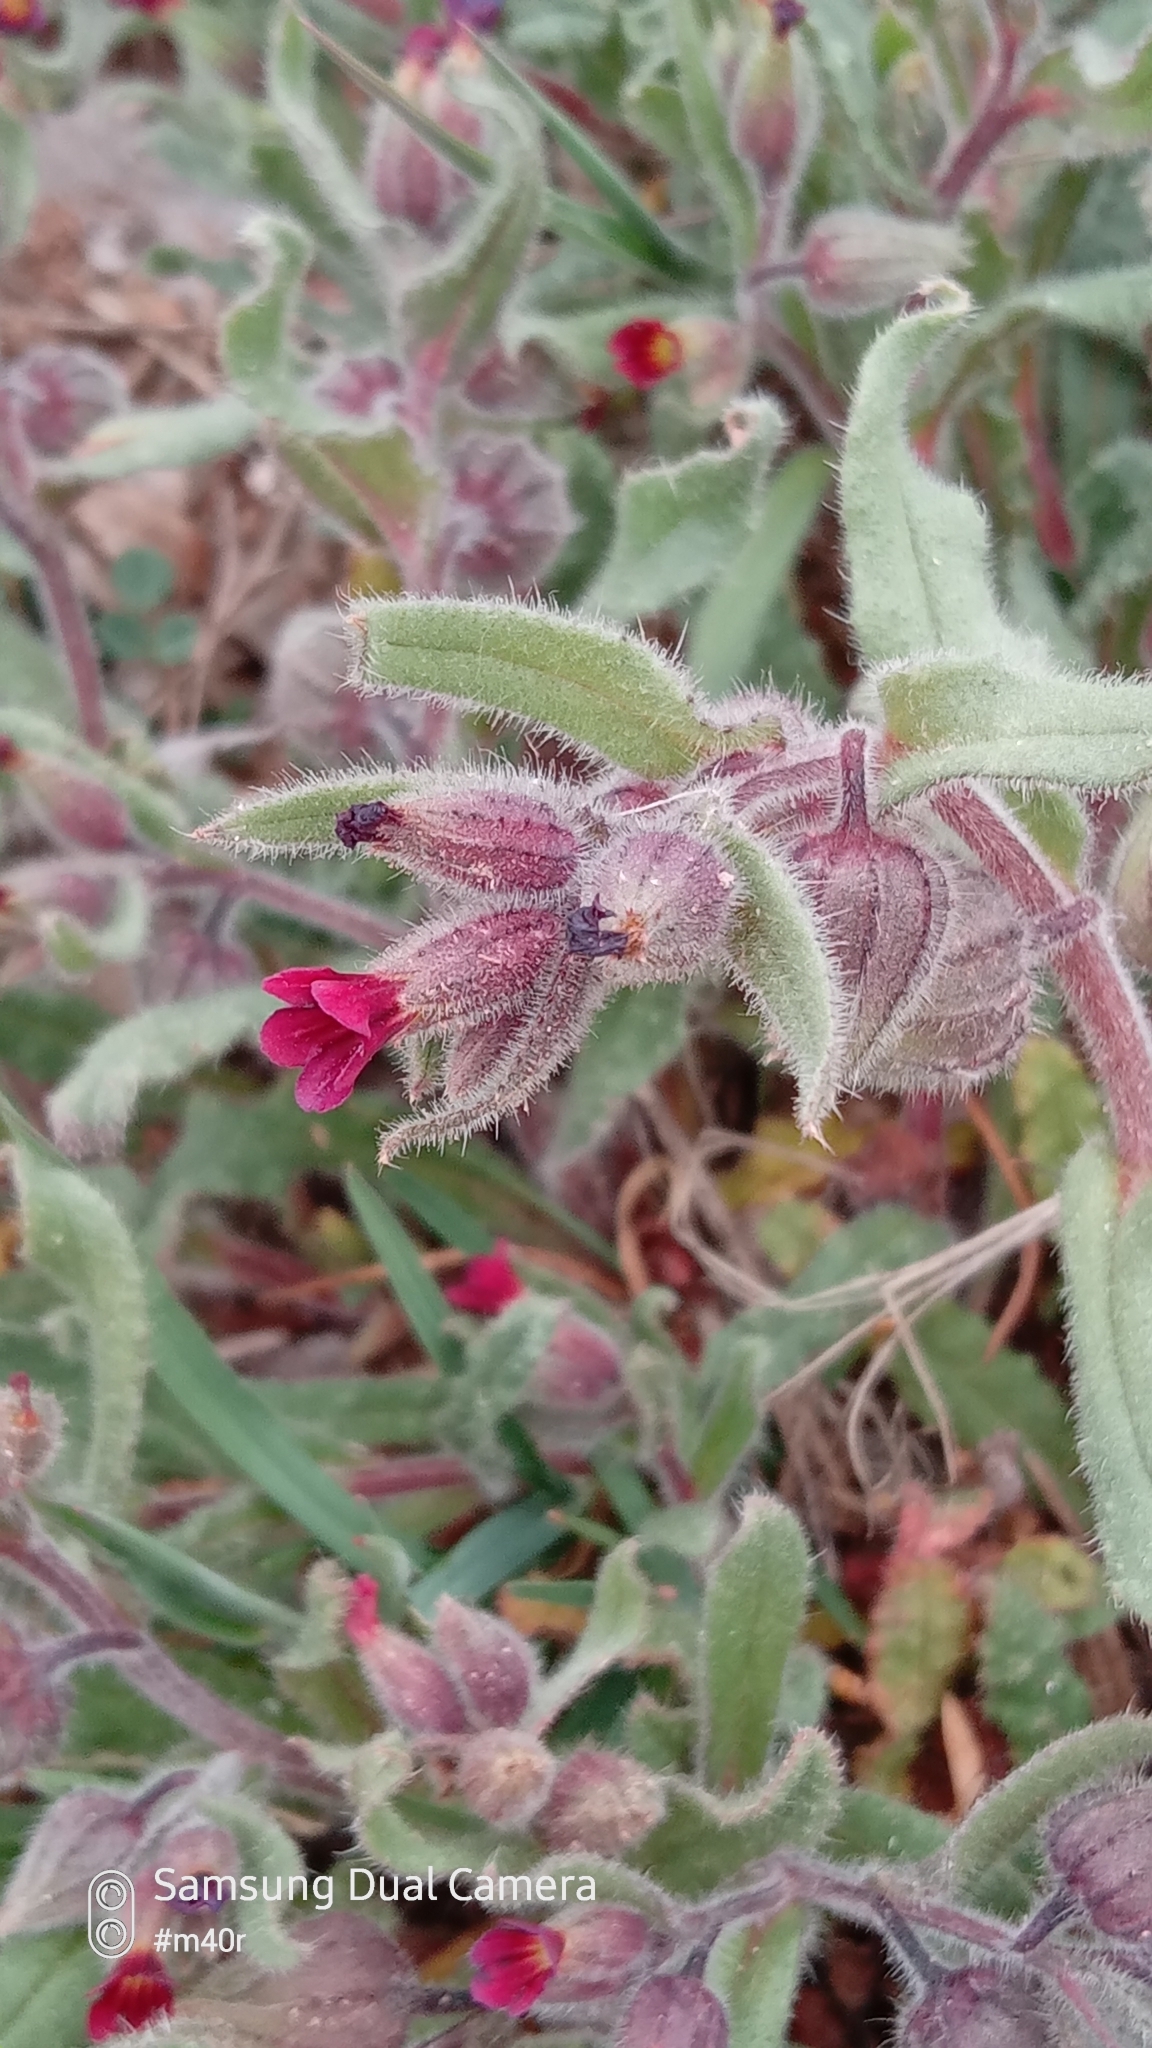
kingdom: Plantae
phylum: Tracheophyta
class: Magnoliopsida
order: Boraginales
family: Boraginaceae
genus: Nonea
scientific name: Nonea caspica
